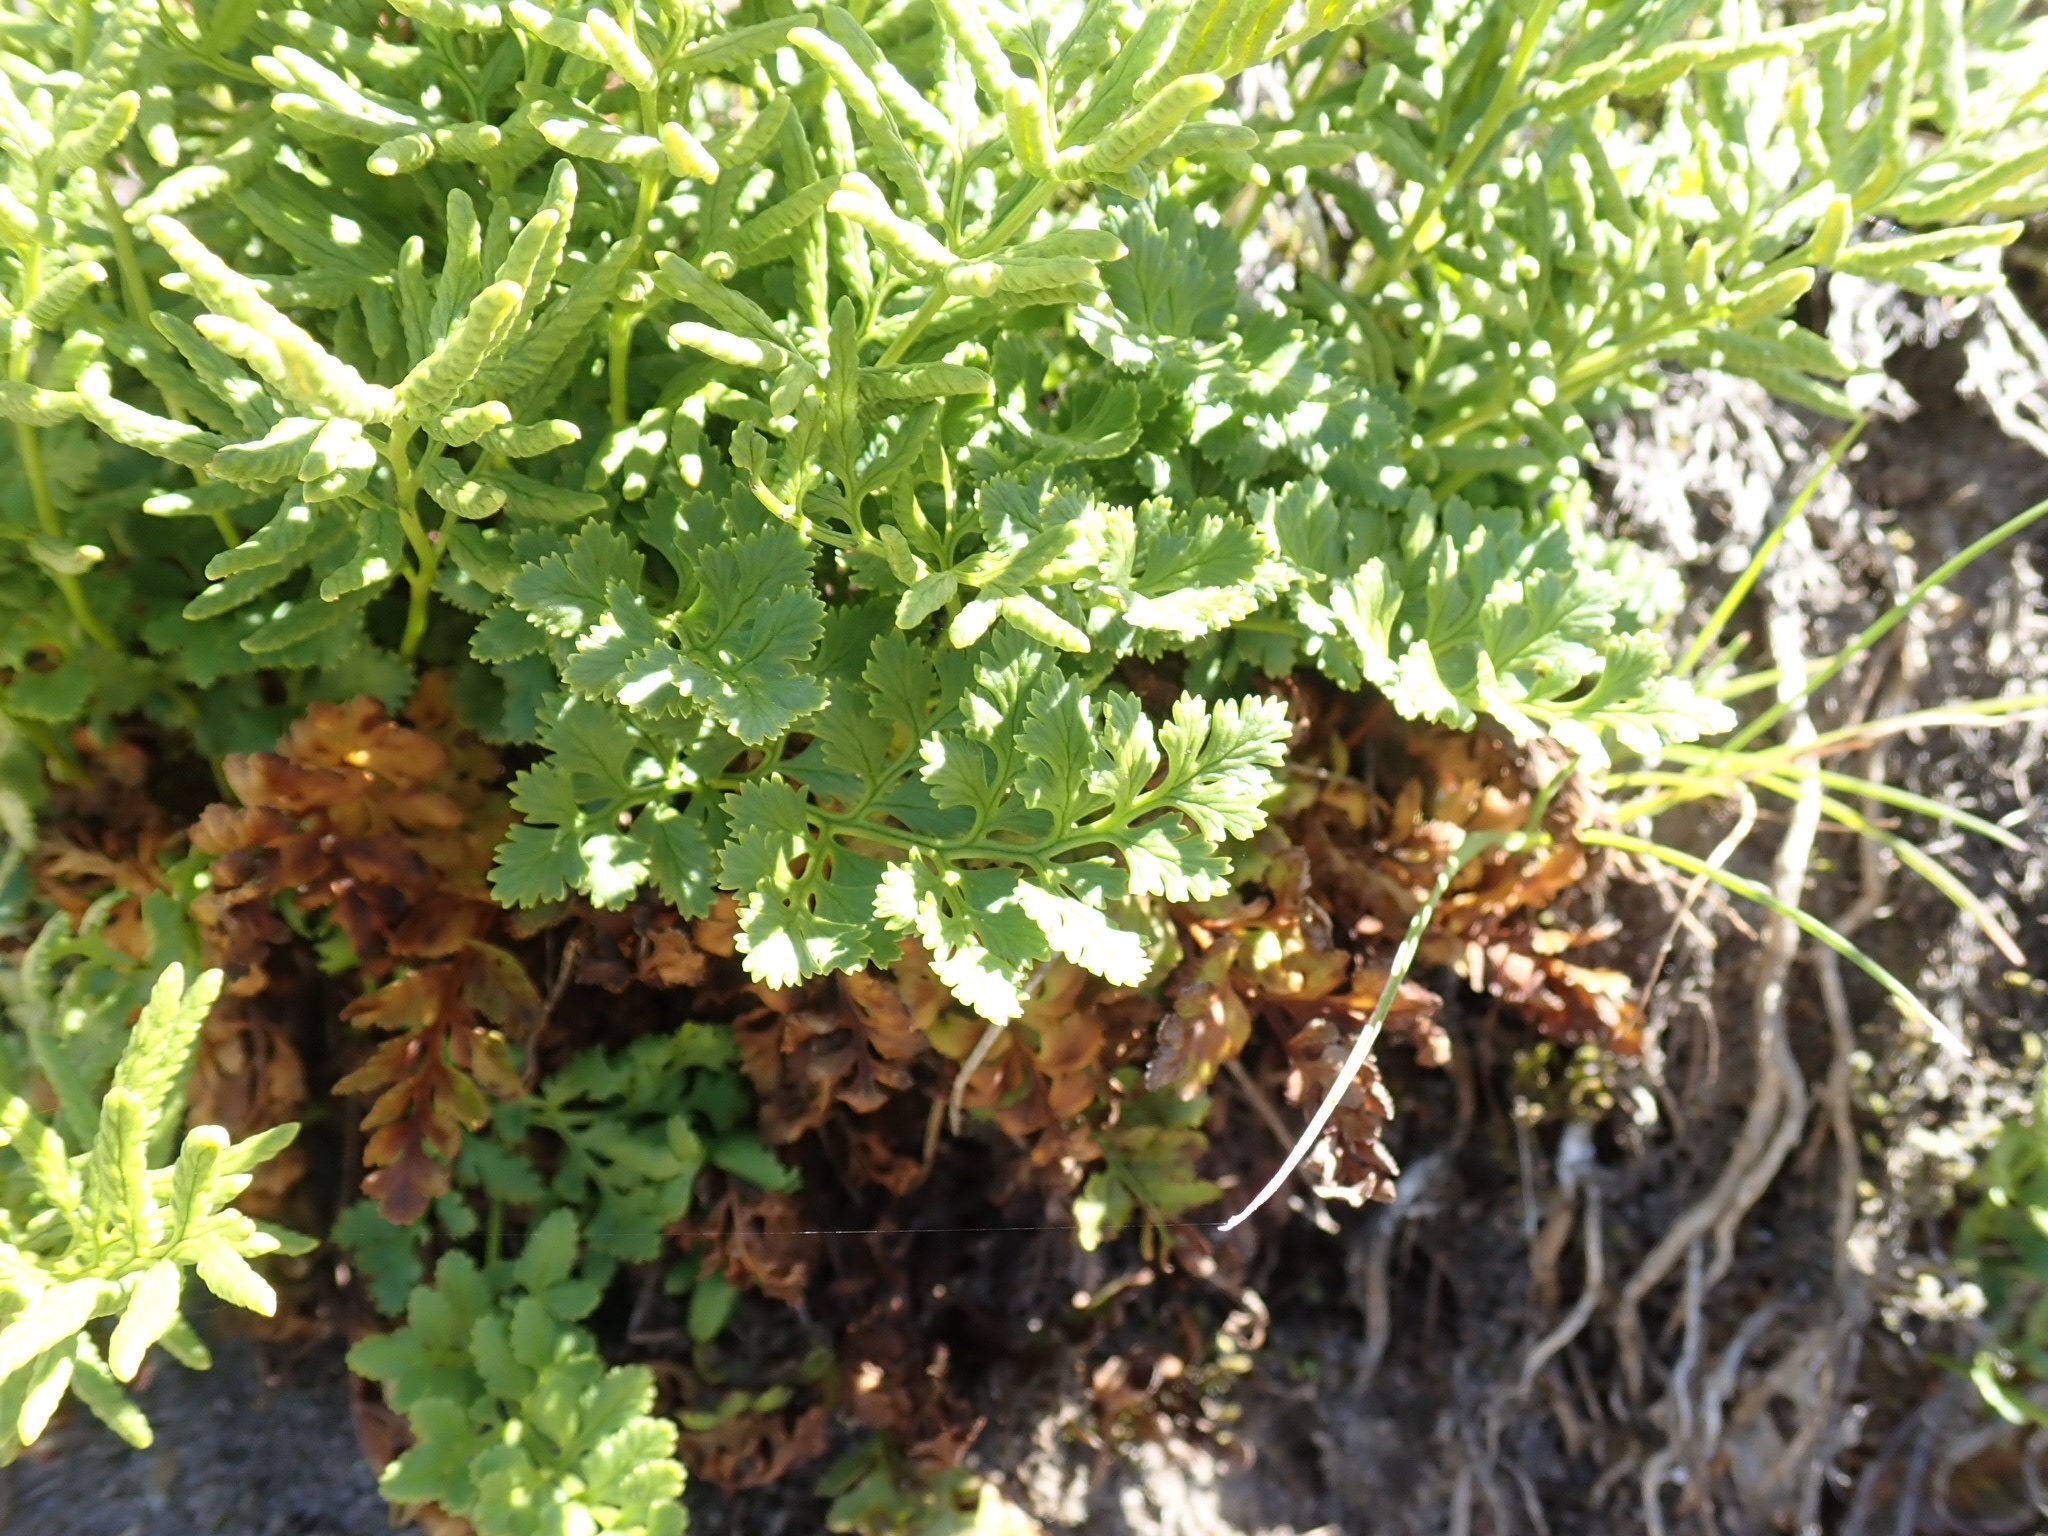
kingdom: Plantae
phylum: Tracheophyta
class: Polypodiopsida
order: Polypodiales
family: Pteridaceae
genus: Cryptogramma
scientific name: Cryptogramma acrostichoides
